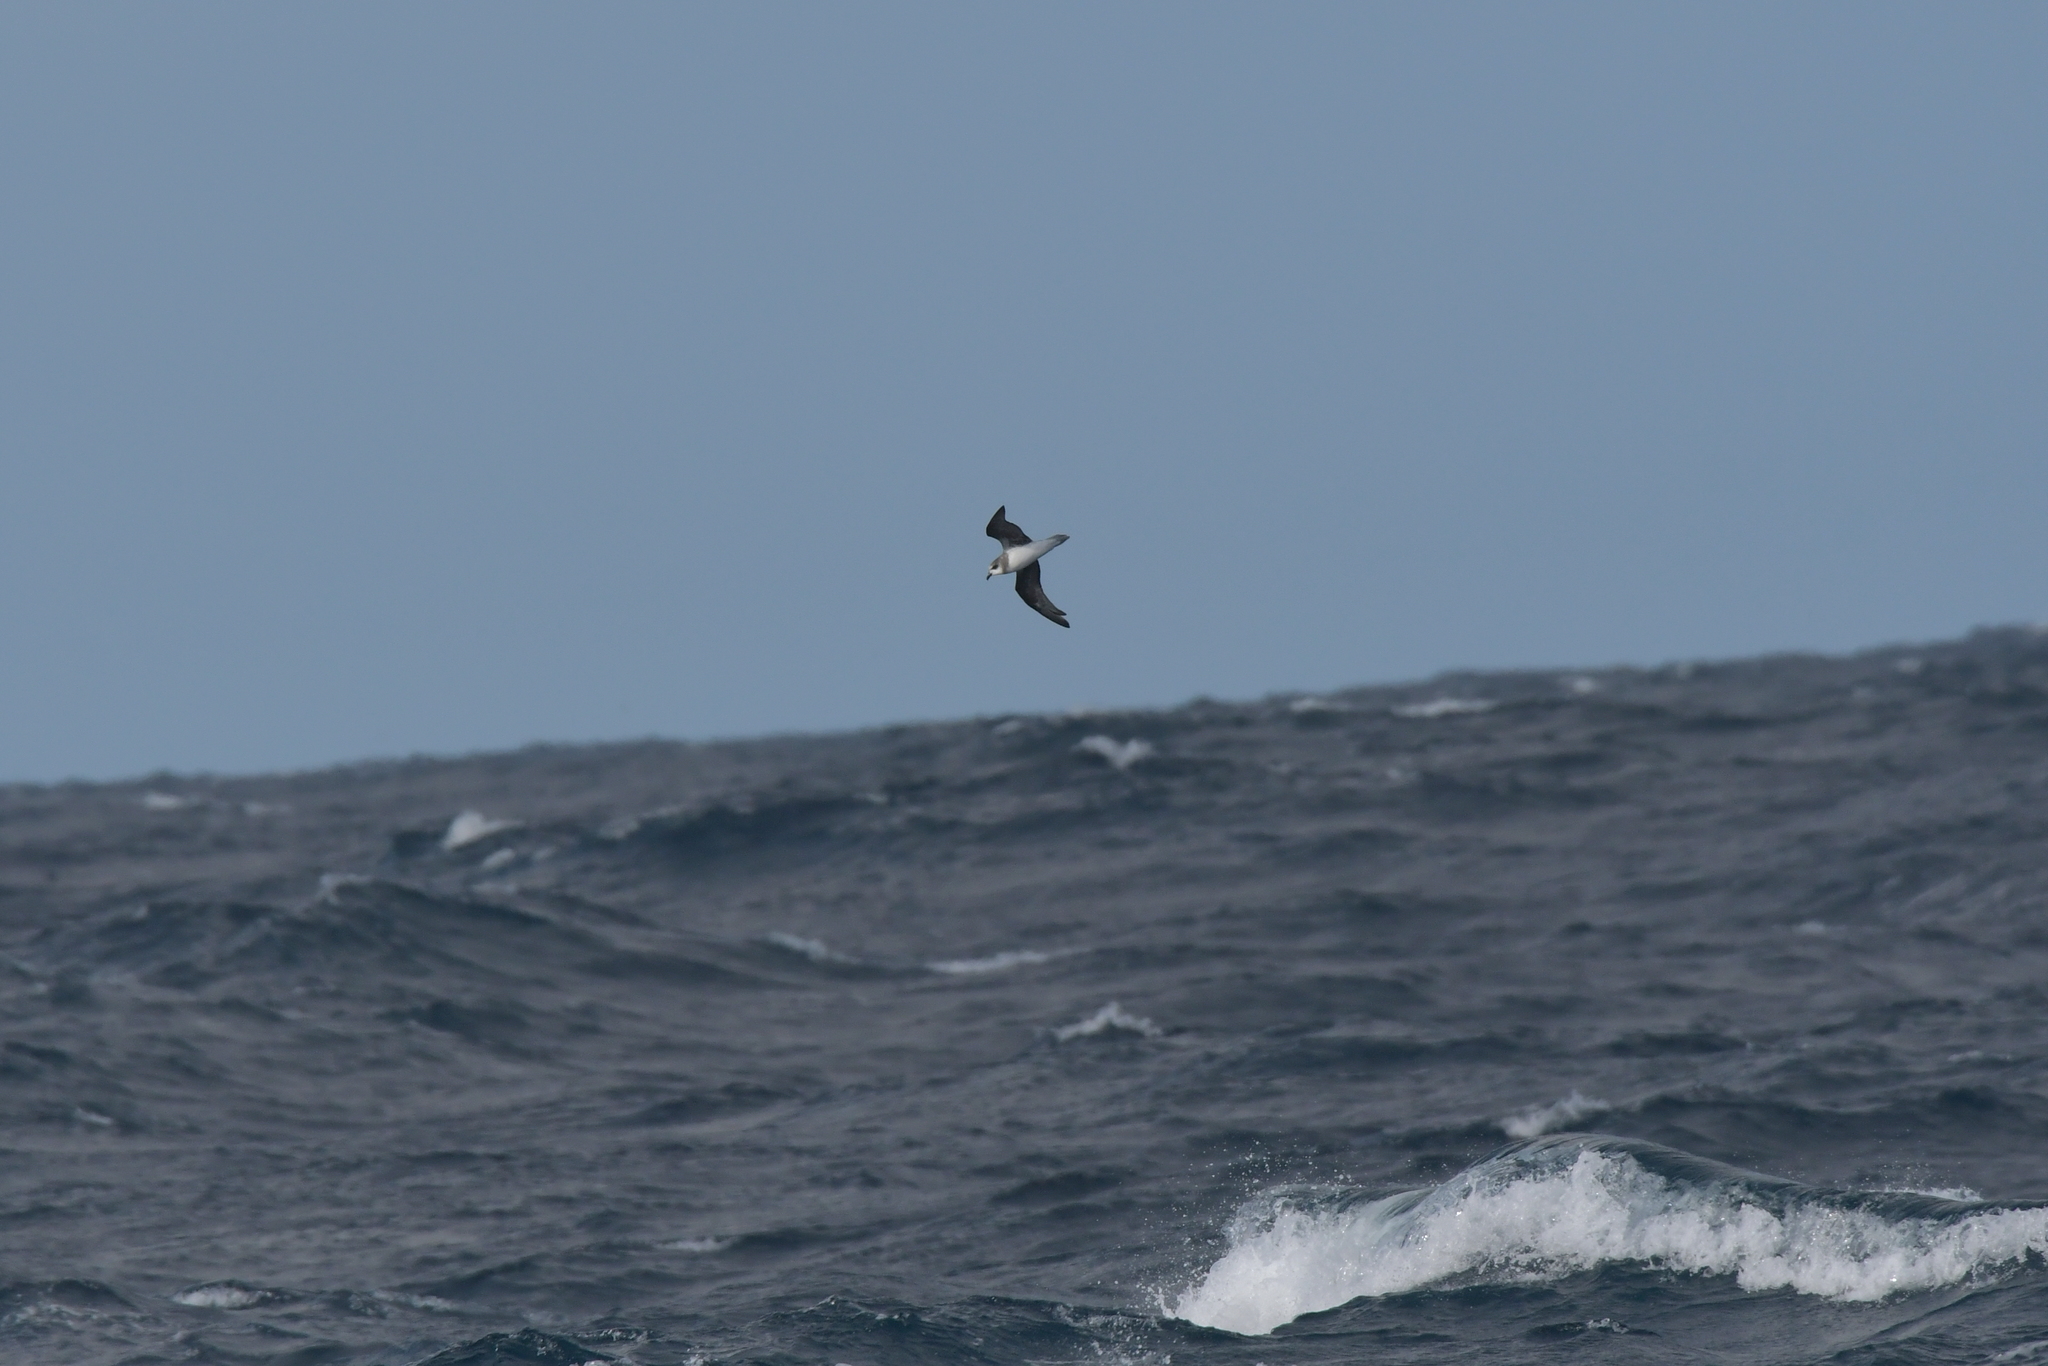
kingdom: Animalia
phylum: Chordata
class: Aves
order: Procellariiformes
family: Procellariidae
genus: Pterodroma
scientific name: Pterodroma mollis
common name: Soft-plumaged petrel
